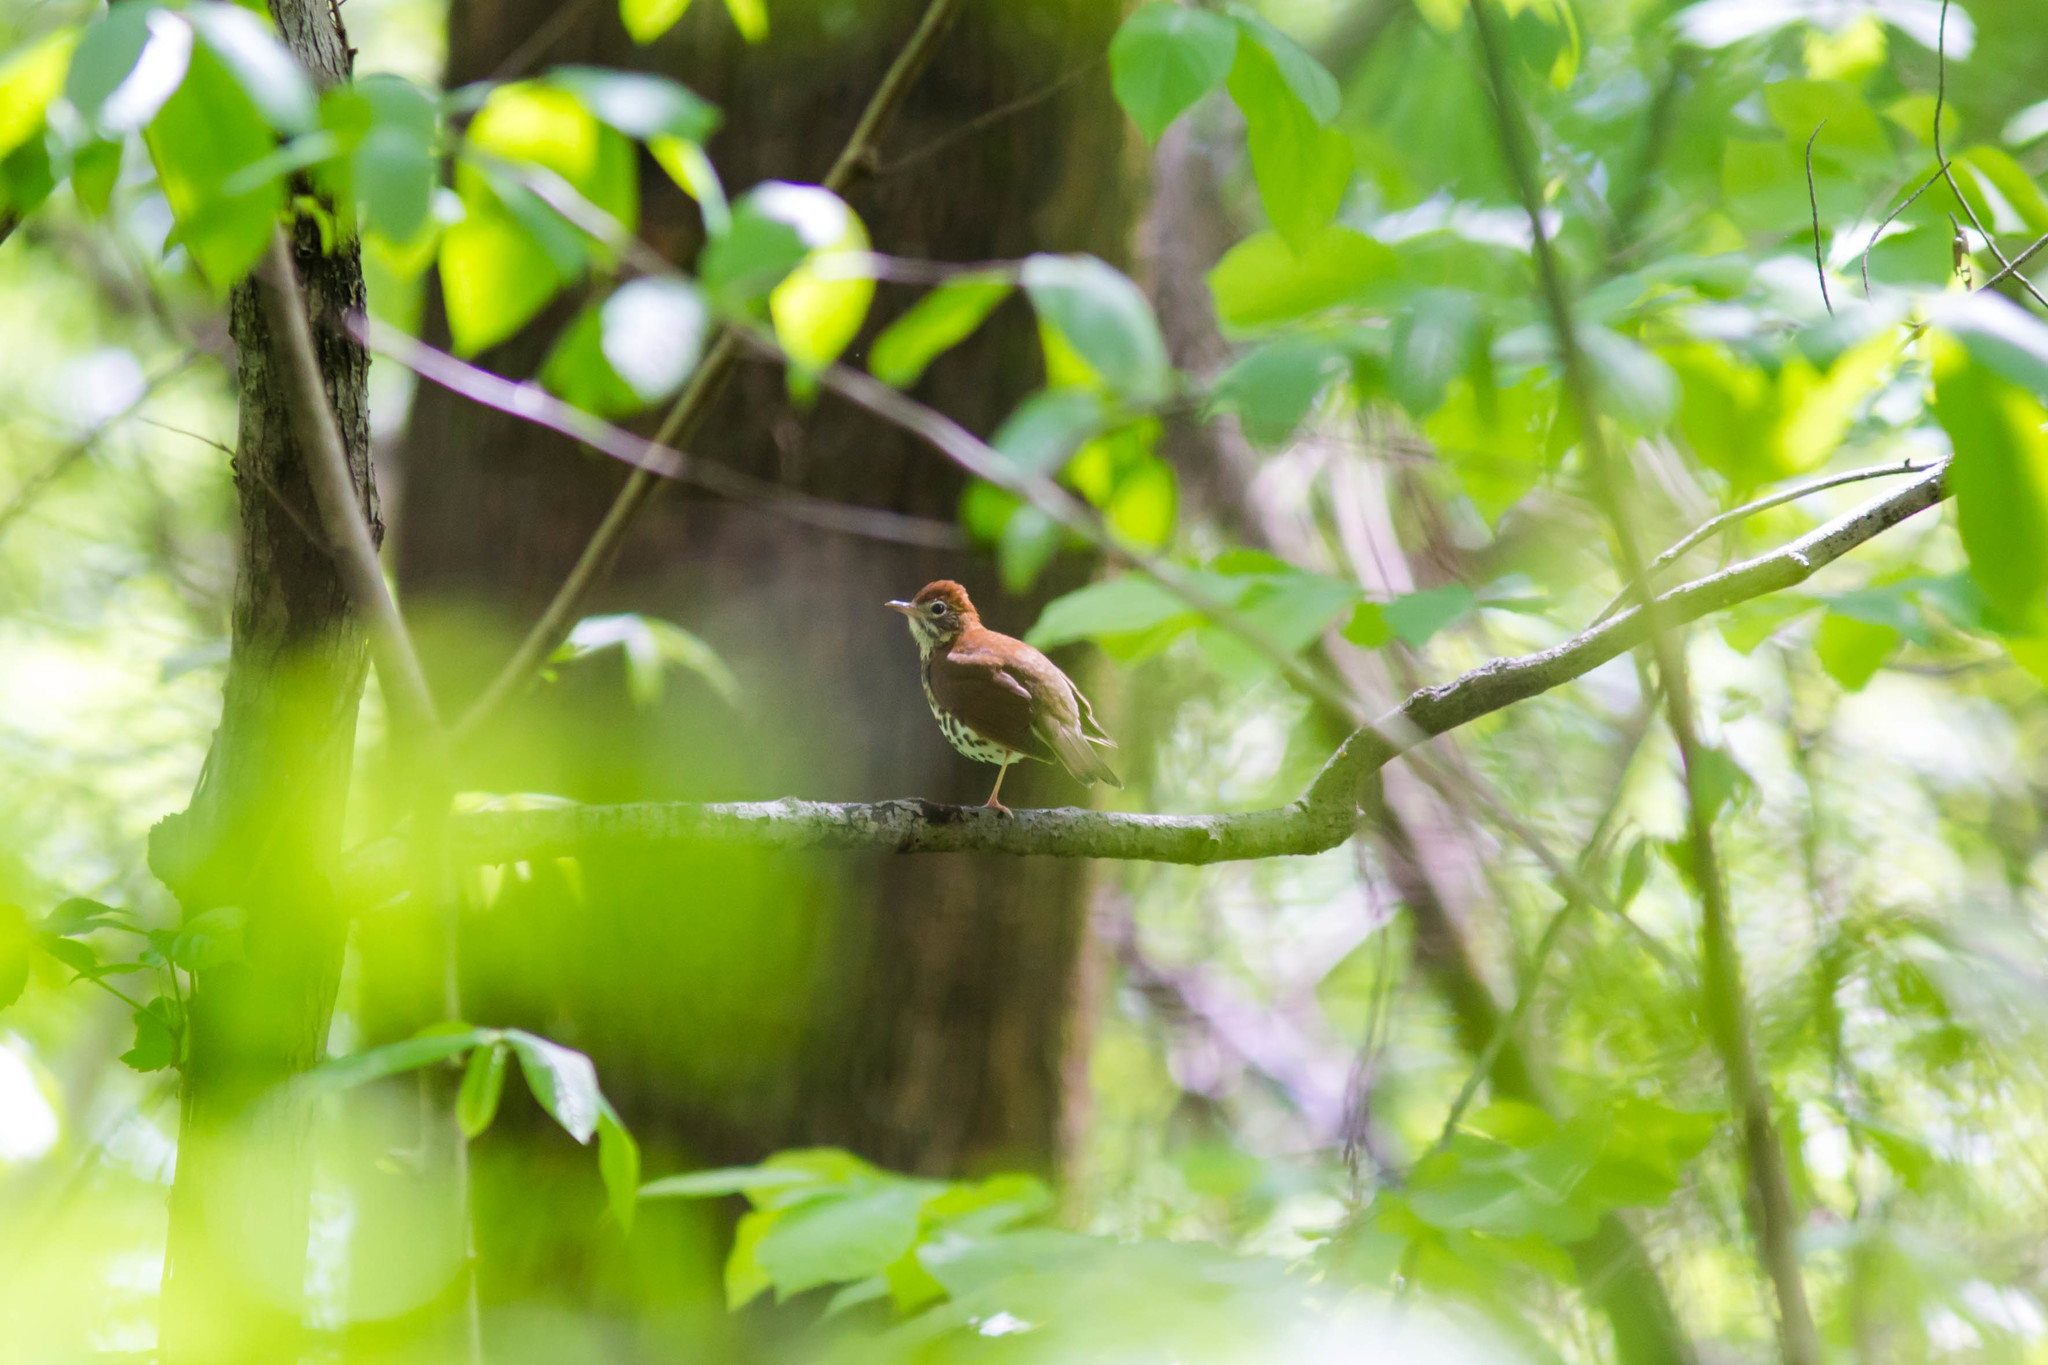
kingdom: Animalia
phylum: Chordata
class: Aves
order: Passeriformes
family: Turdidae
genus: Hylocichla
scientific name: Hylocichla mustelina
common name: Wood thrush
